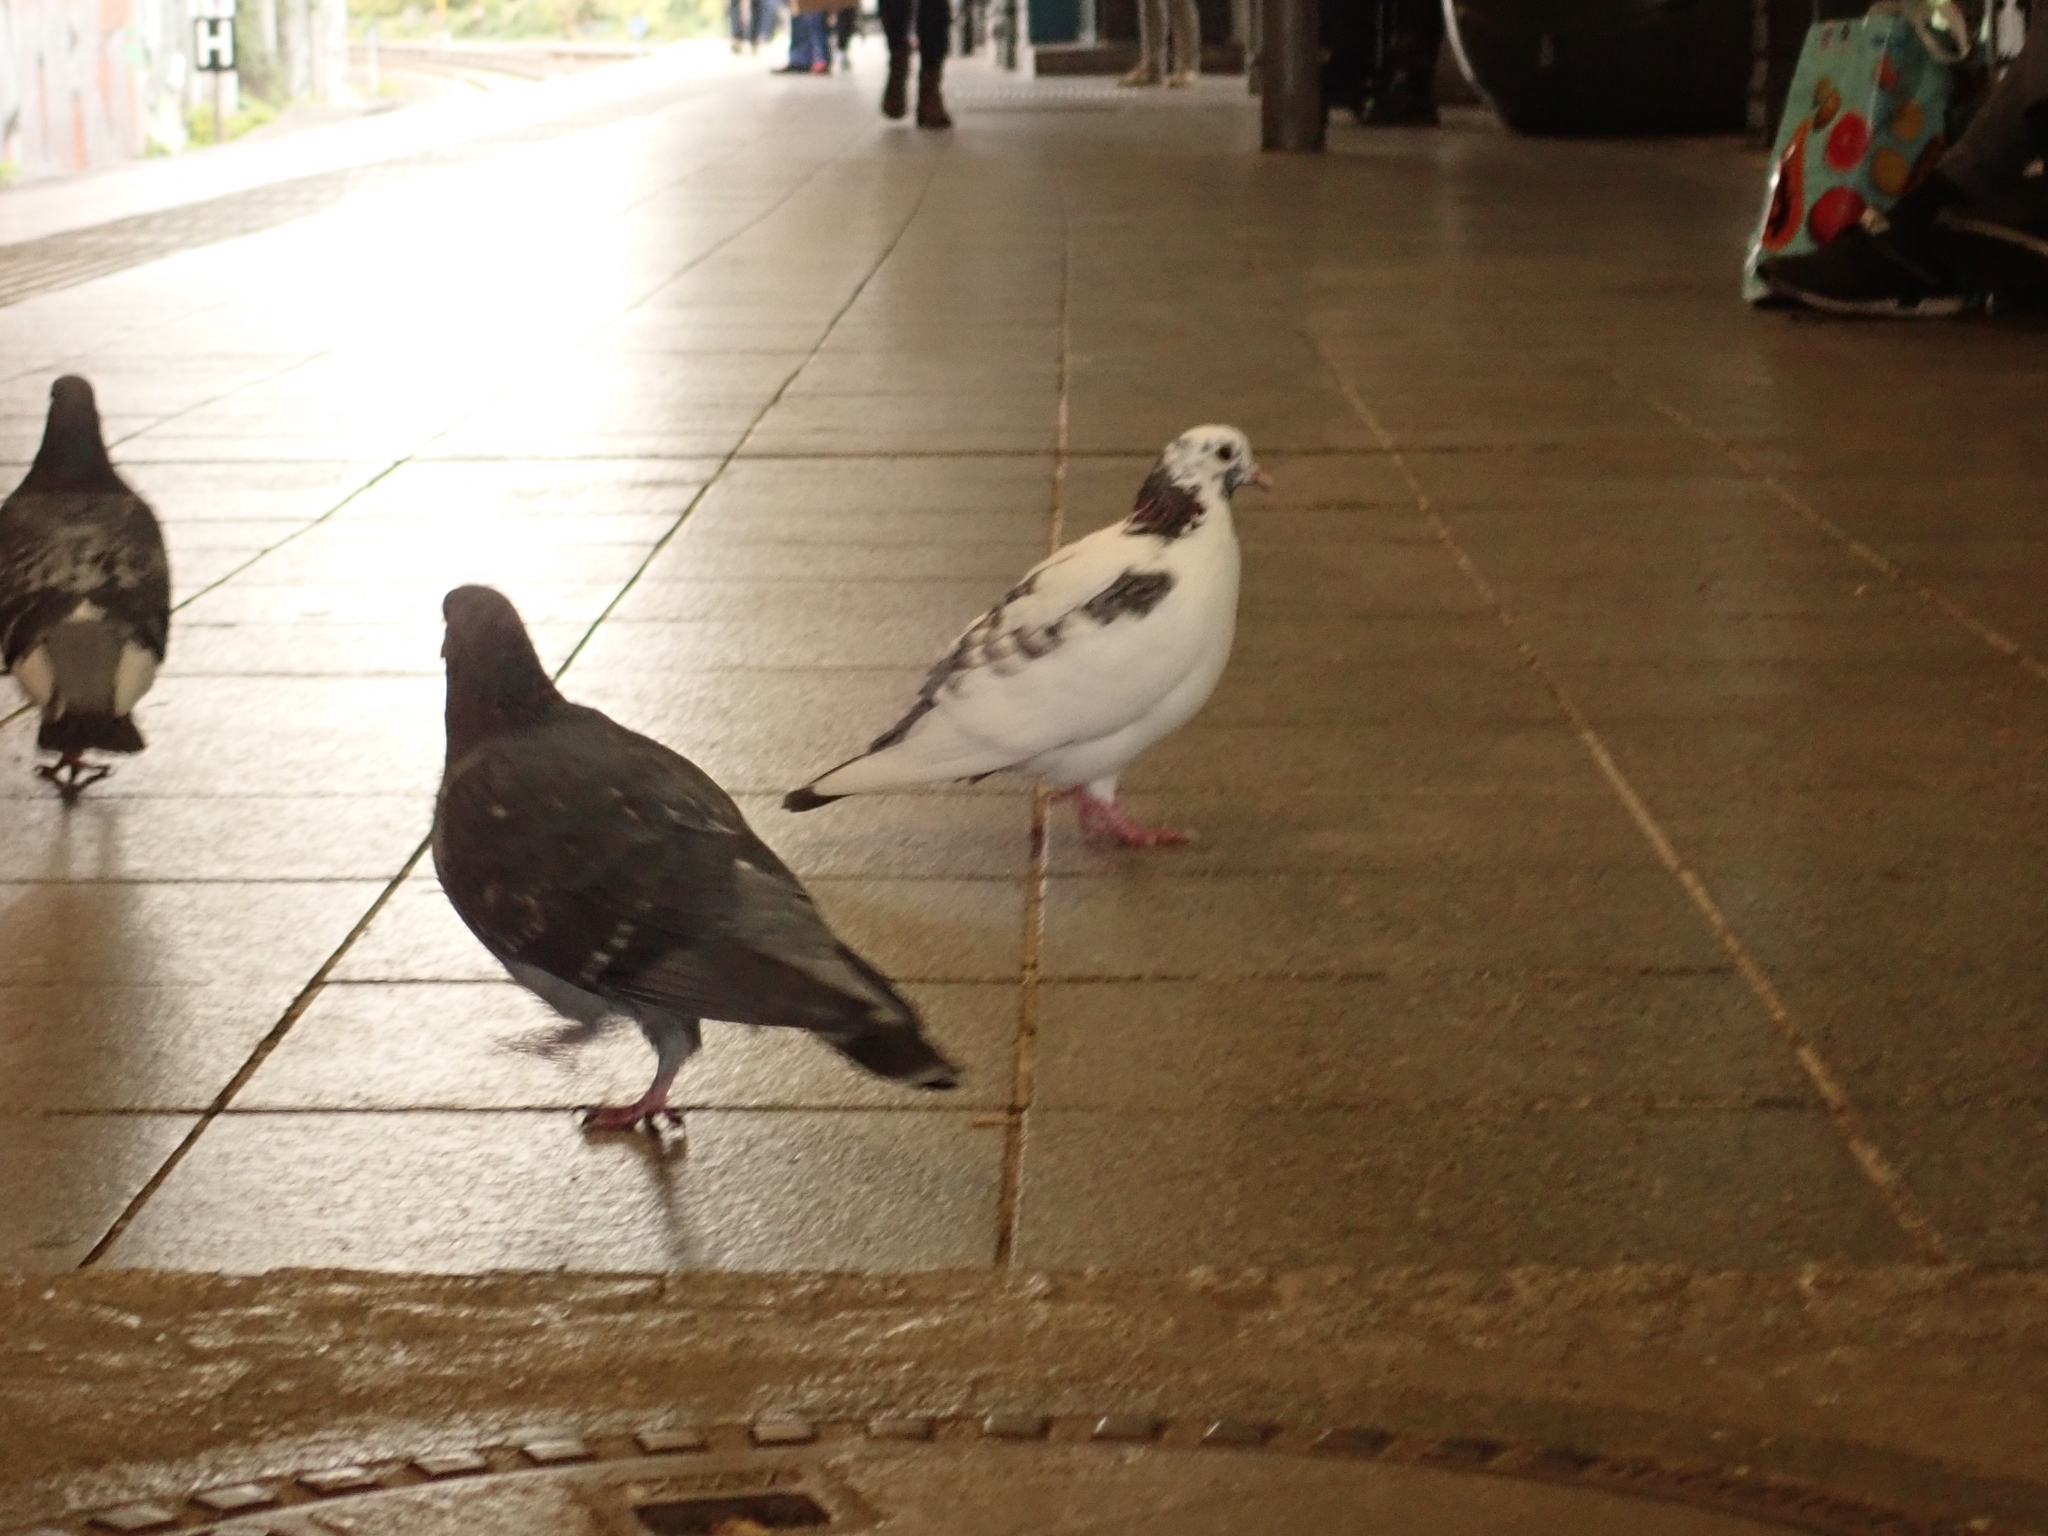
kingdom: Animalia
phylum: Chordata
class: Aves
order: Columbiformes
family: Columbidae
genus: Columba
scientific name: Columba livia
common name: Rock pigeon
